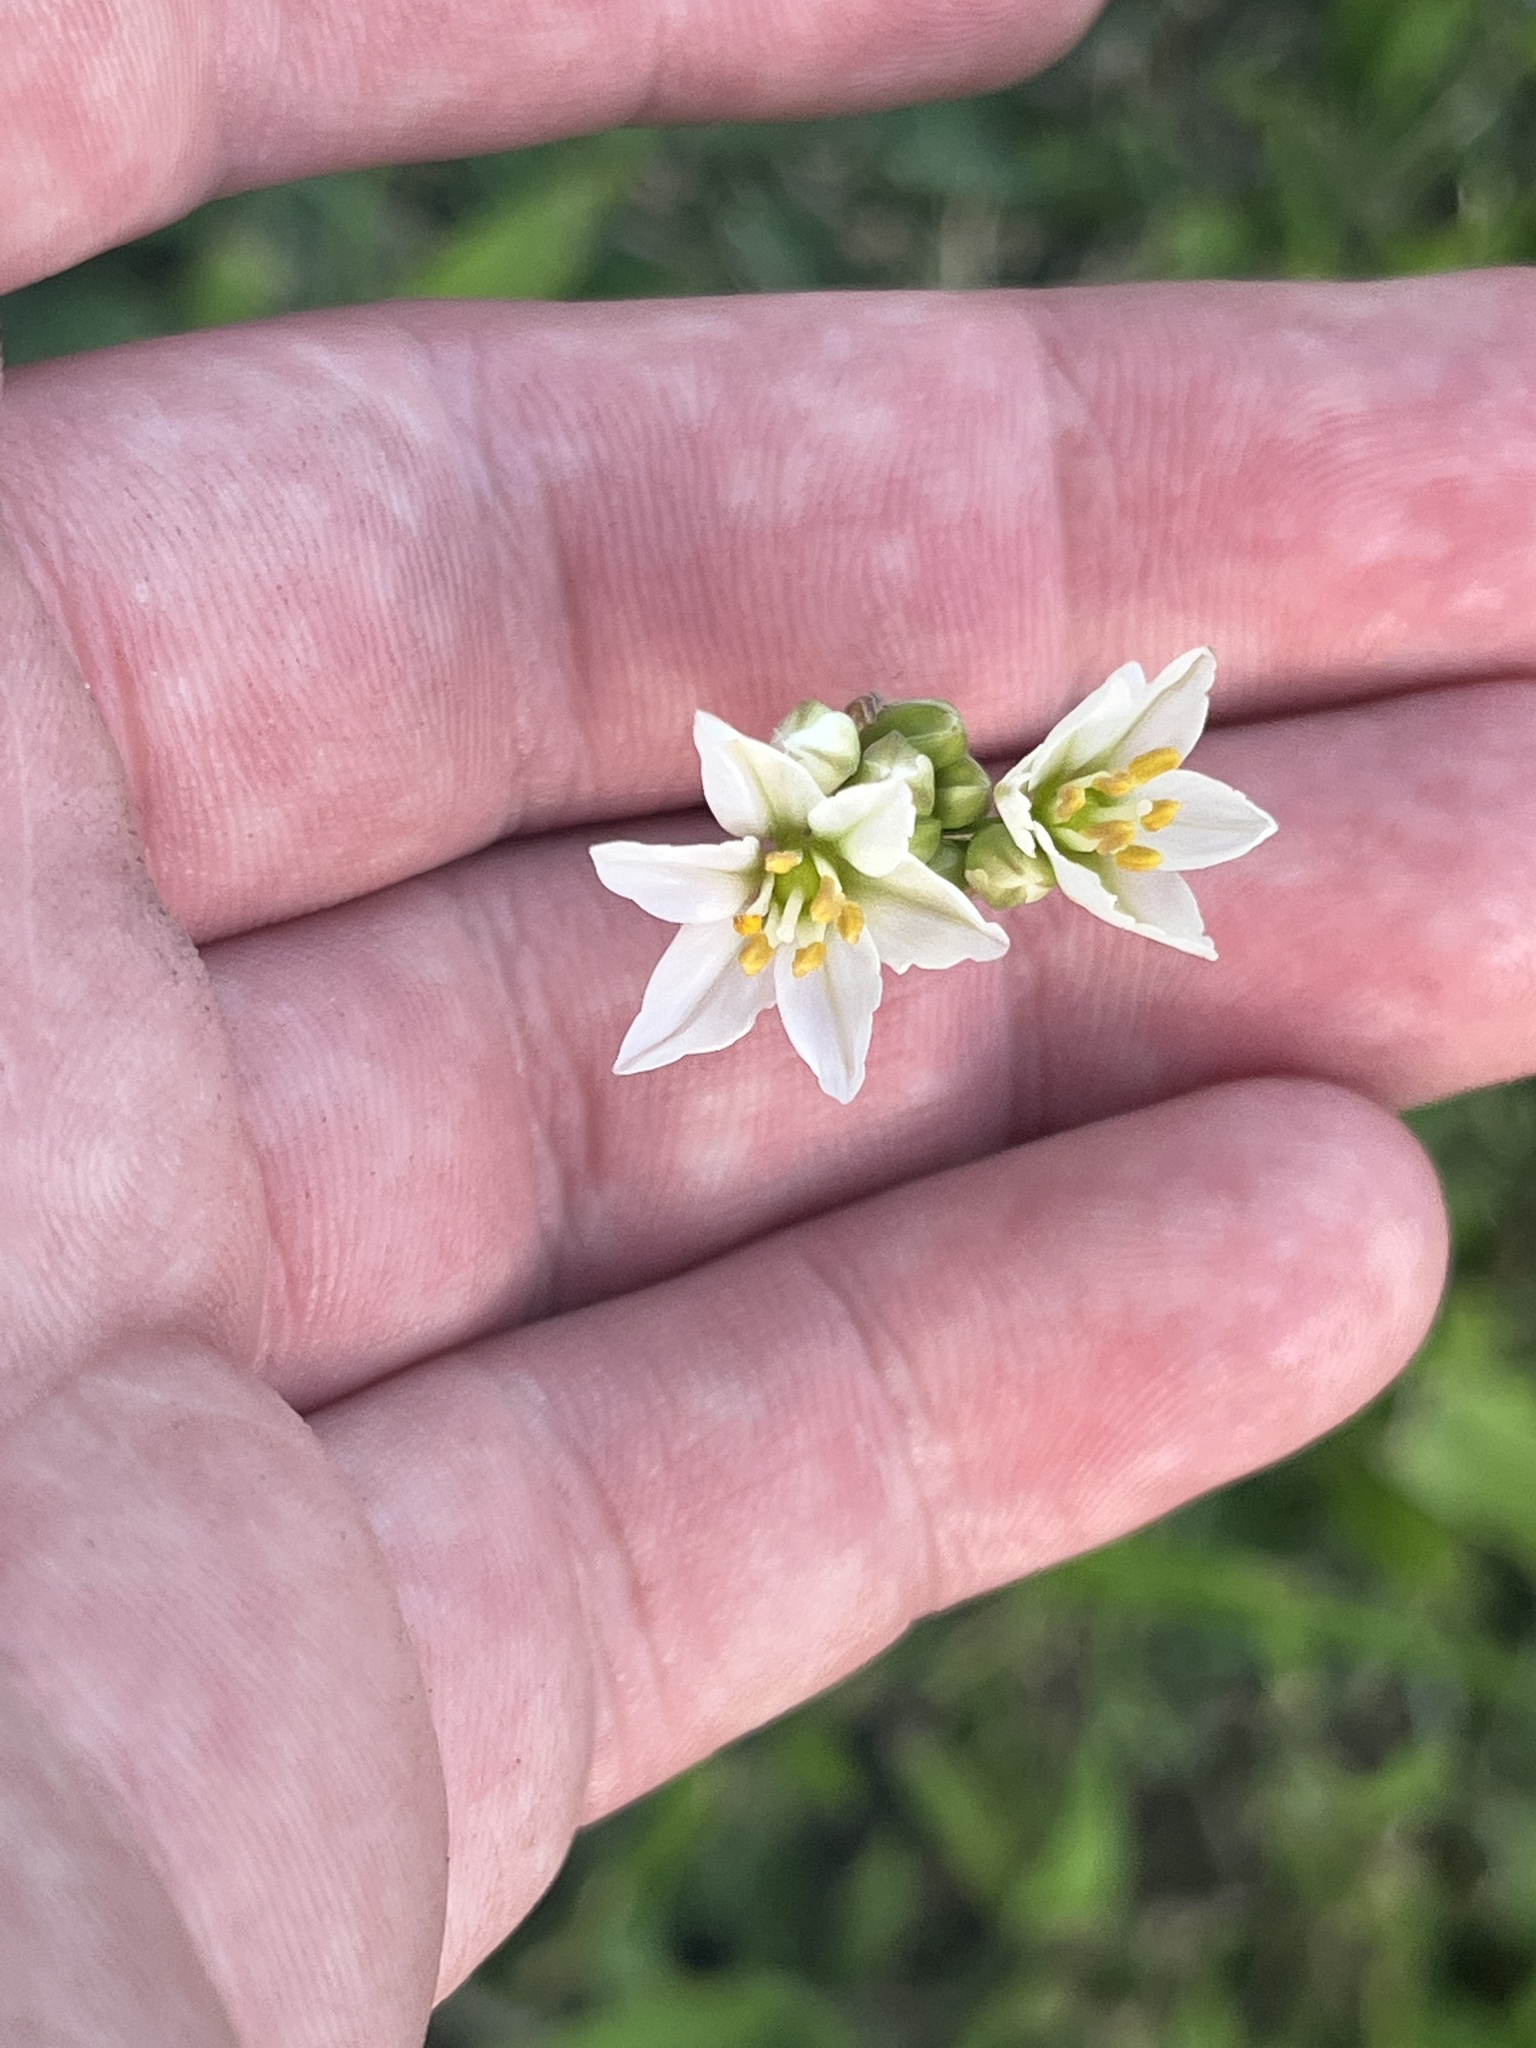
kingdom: Plantae
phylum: Tracheophyta
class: Liliopsida
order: Asparagales
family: Amaryllidaceae
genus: Nothoscordum
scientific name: Nothoscordum borbonicum
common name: Honeybells
